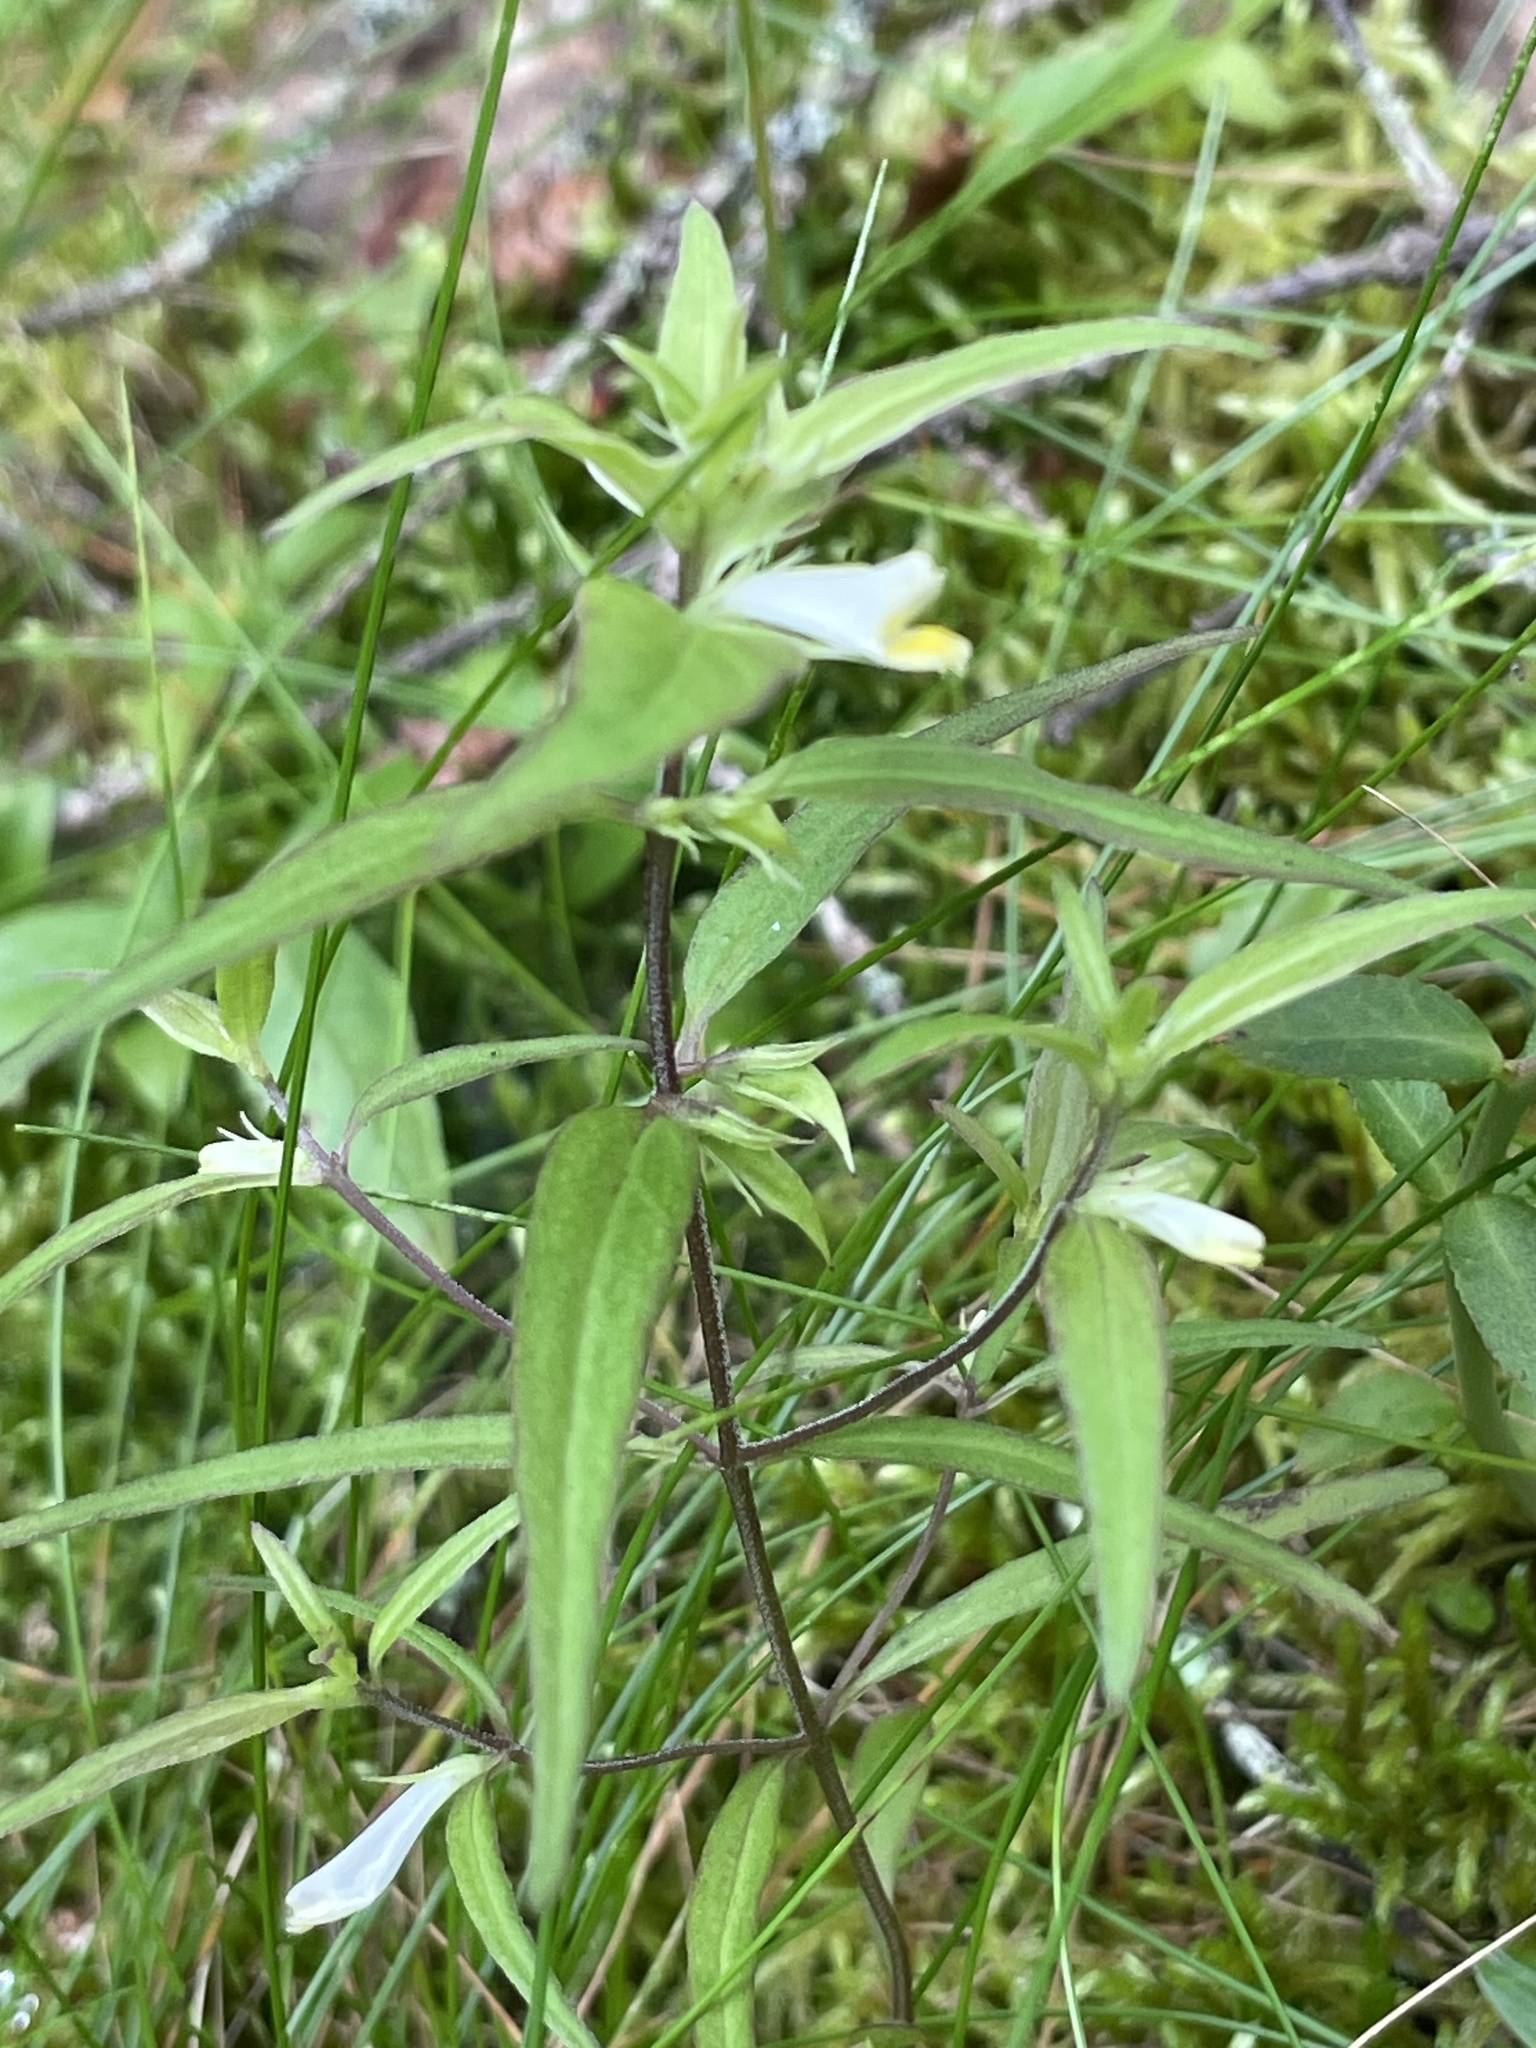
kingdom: Plantae
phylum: Tracheophyta
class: Magnoliopsida
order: Lamiales
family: Orobanchaceae
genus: Melampyrum
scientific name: Melampyrum lineare
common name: American cow-wheat
